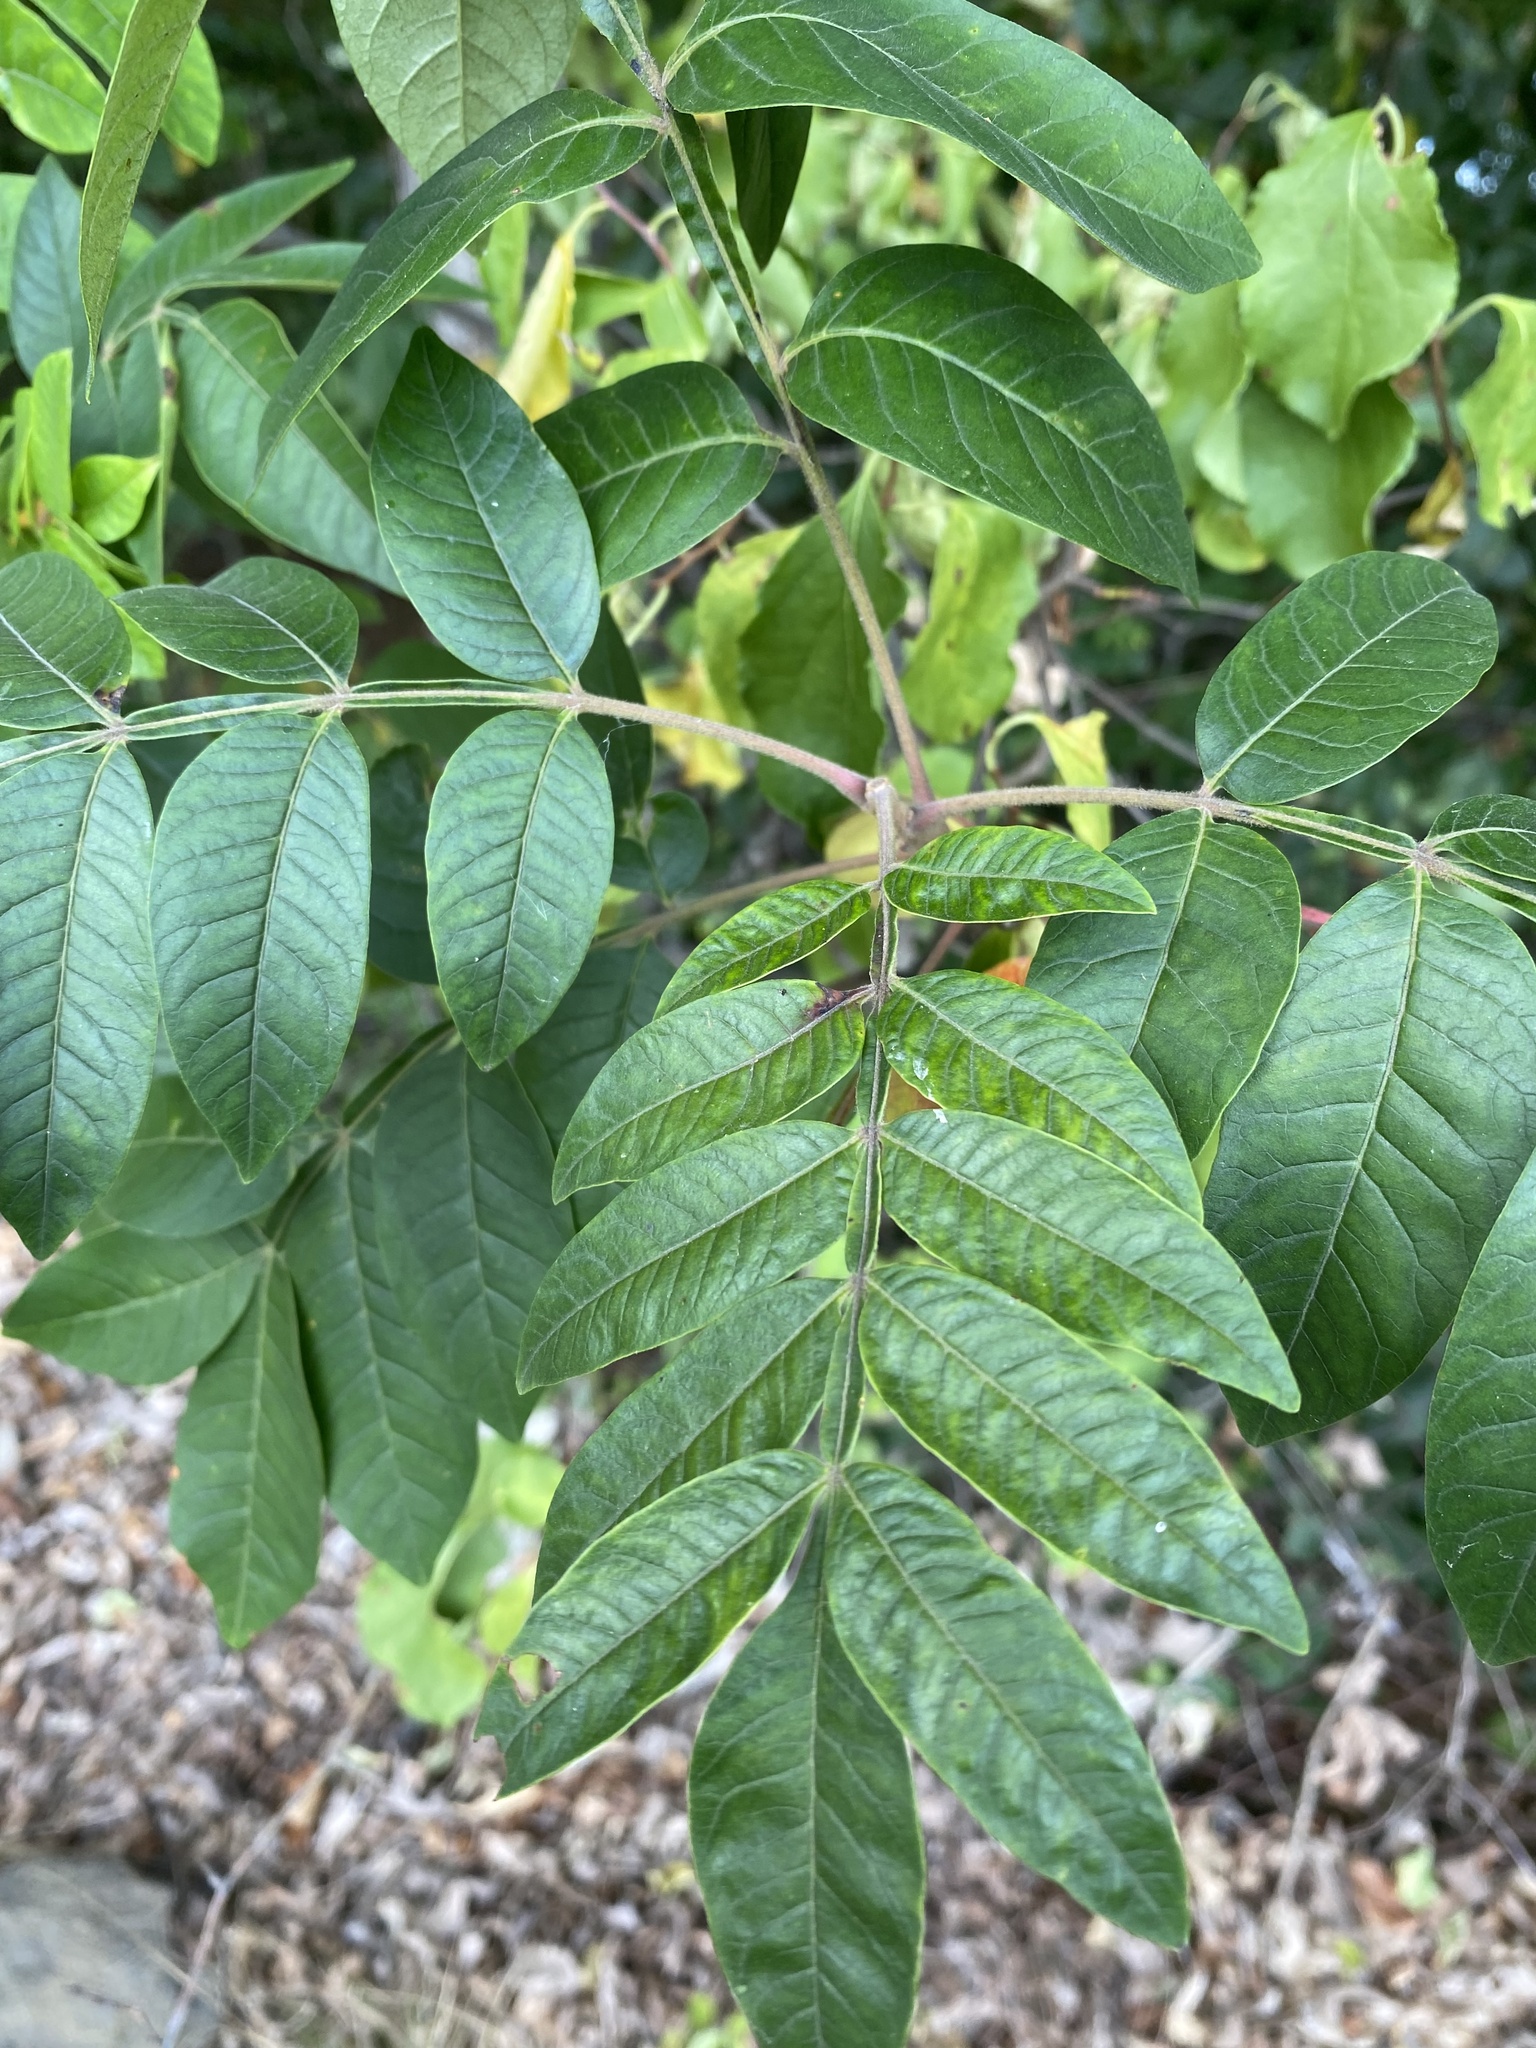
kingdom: Plantae
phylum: Tracheophyta
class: Magnoliopsida
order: Sapindales
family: Anacardiaceae
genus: Rhus
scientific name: Rhus copallina
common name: Shining sumac
